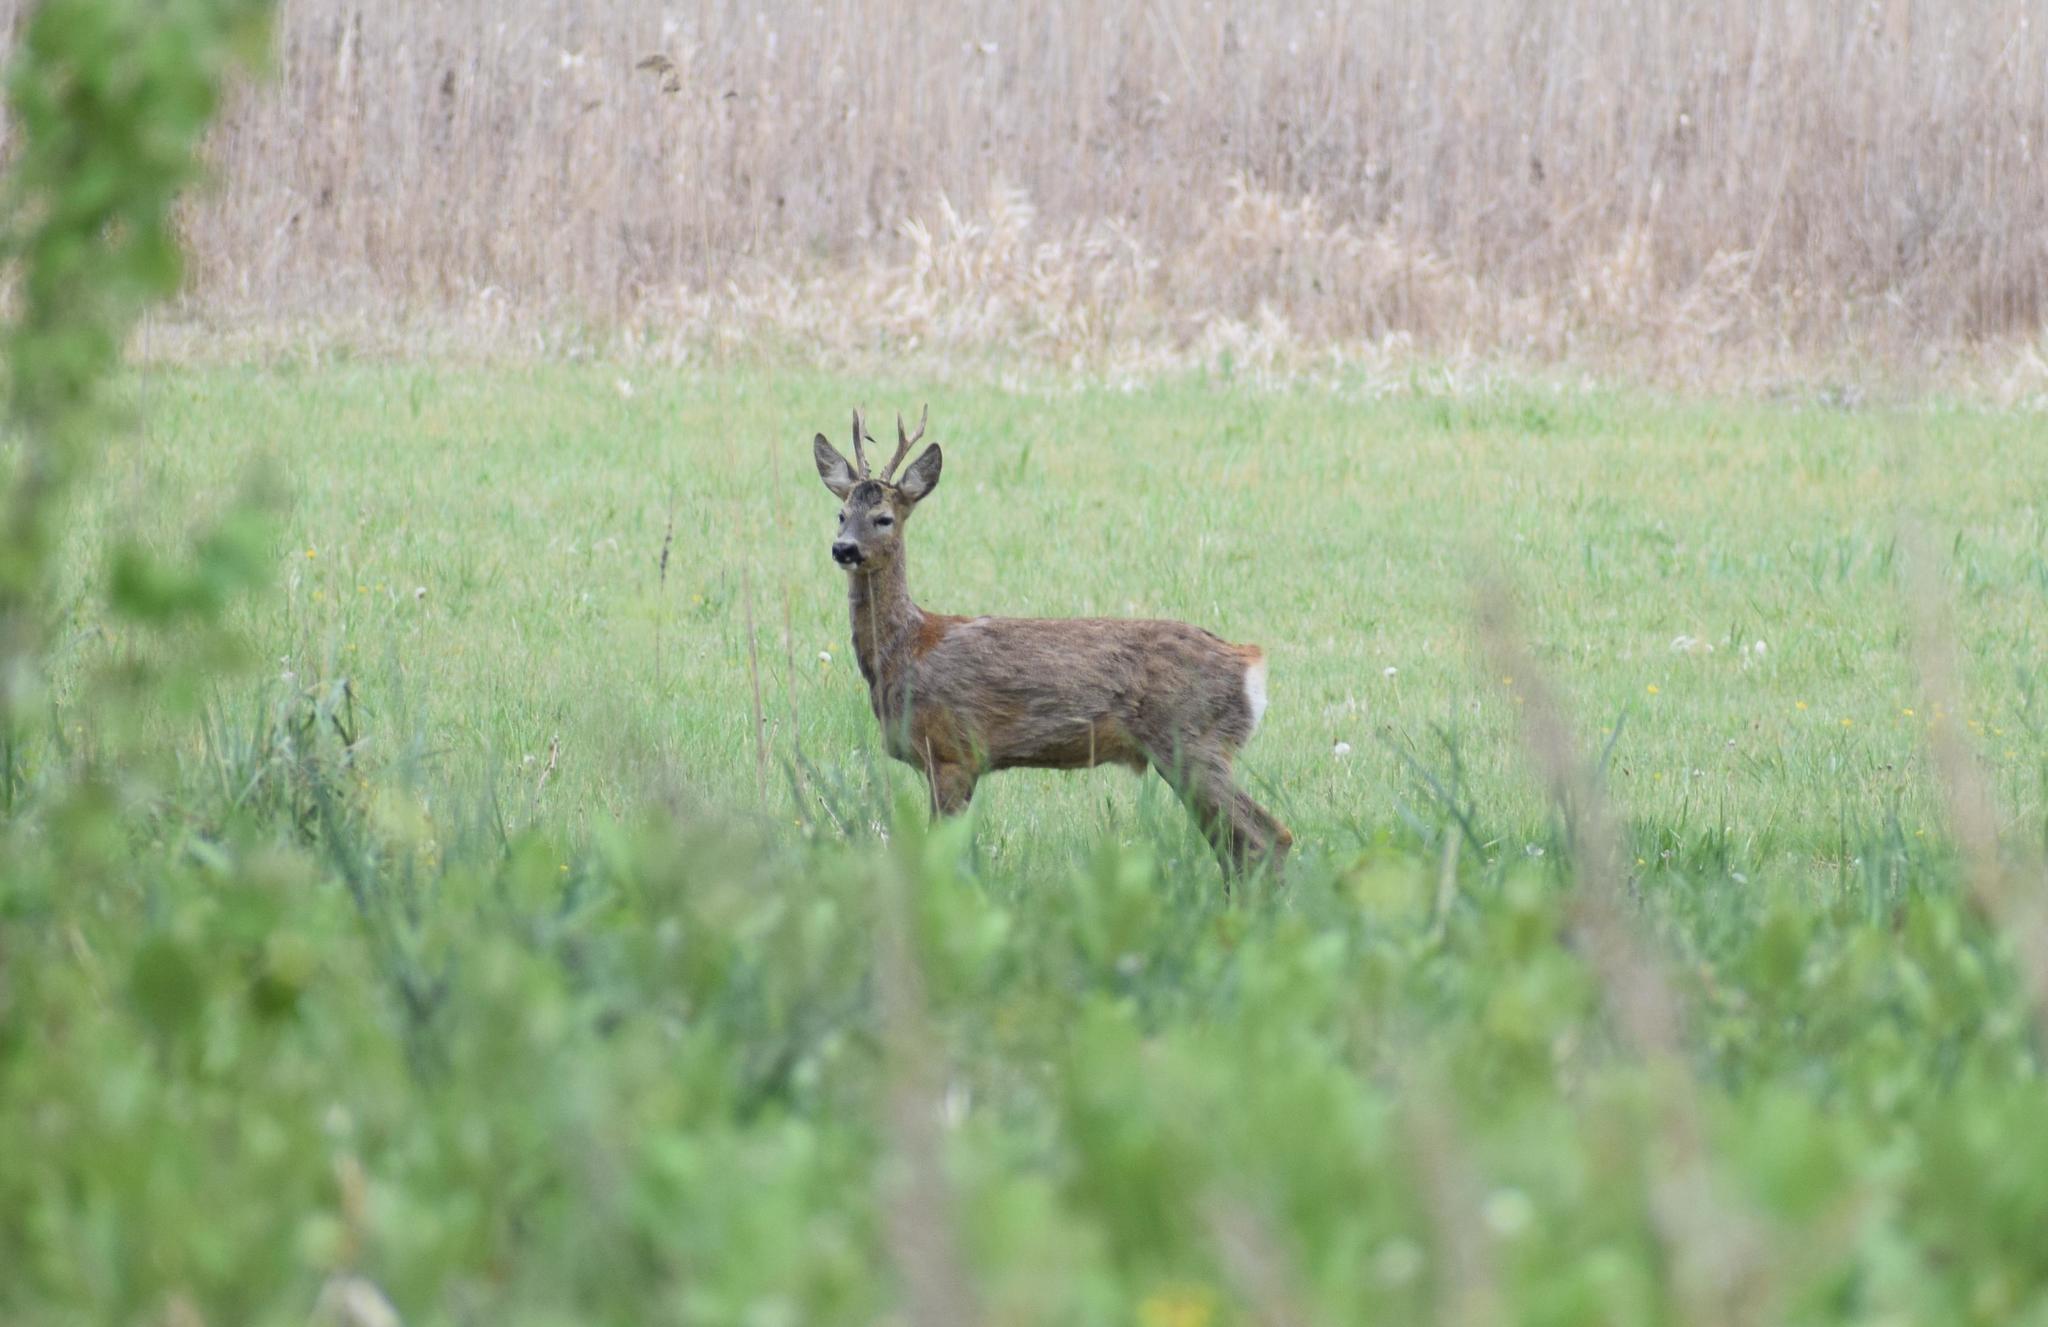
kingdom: Animalia
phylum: Chordata
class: Mammalia
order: Artiodactyla
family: Cervidae
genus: Capreolus
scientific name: Capreolus capreolus
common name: Western roe deer
